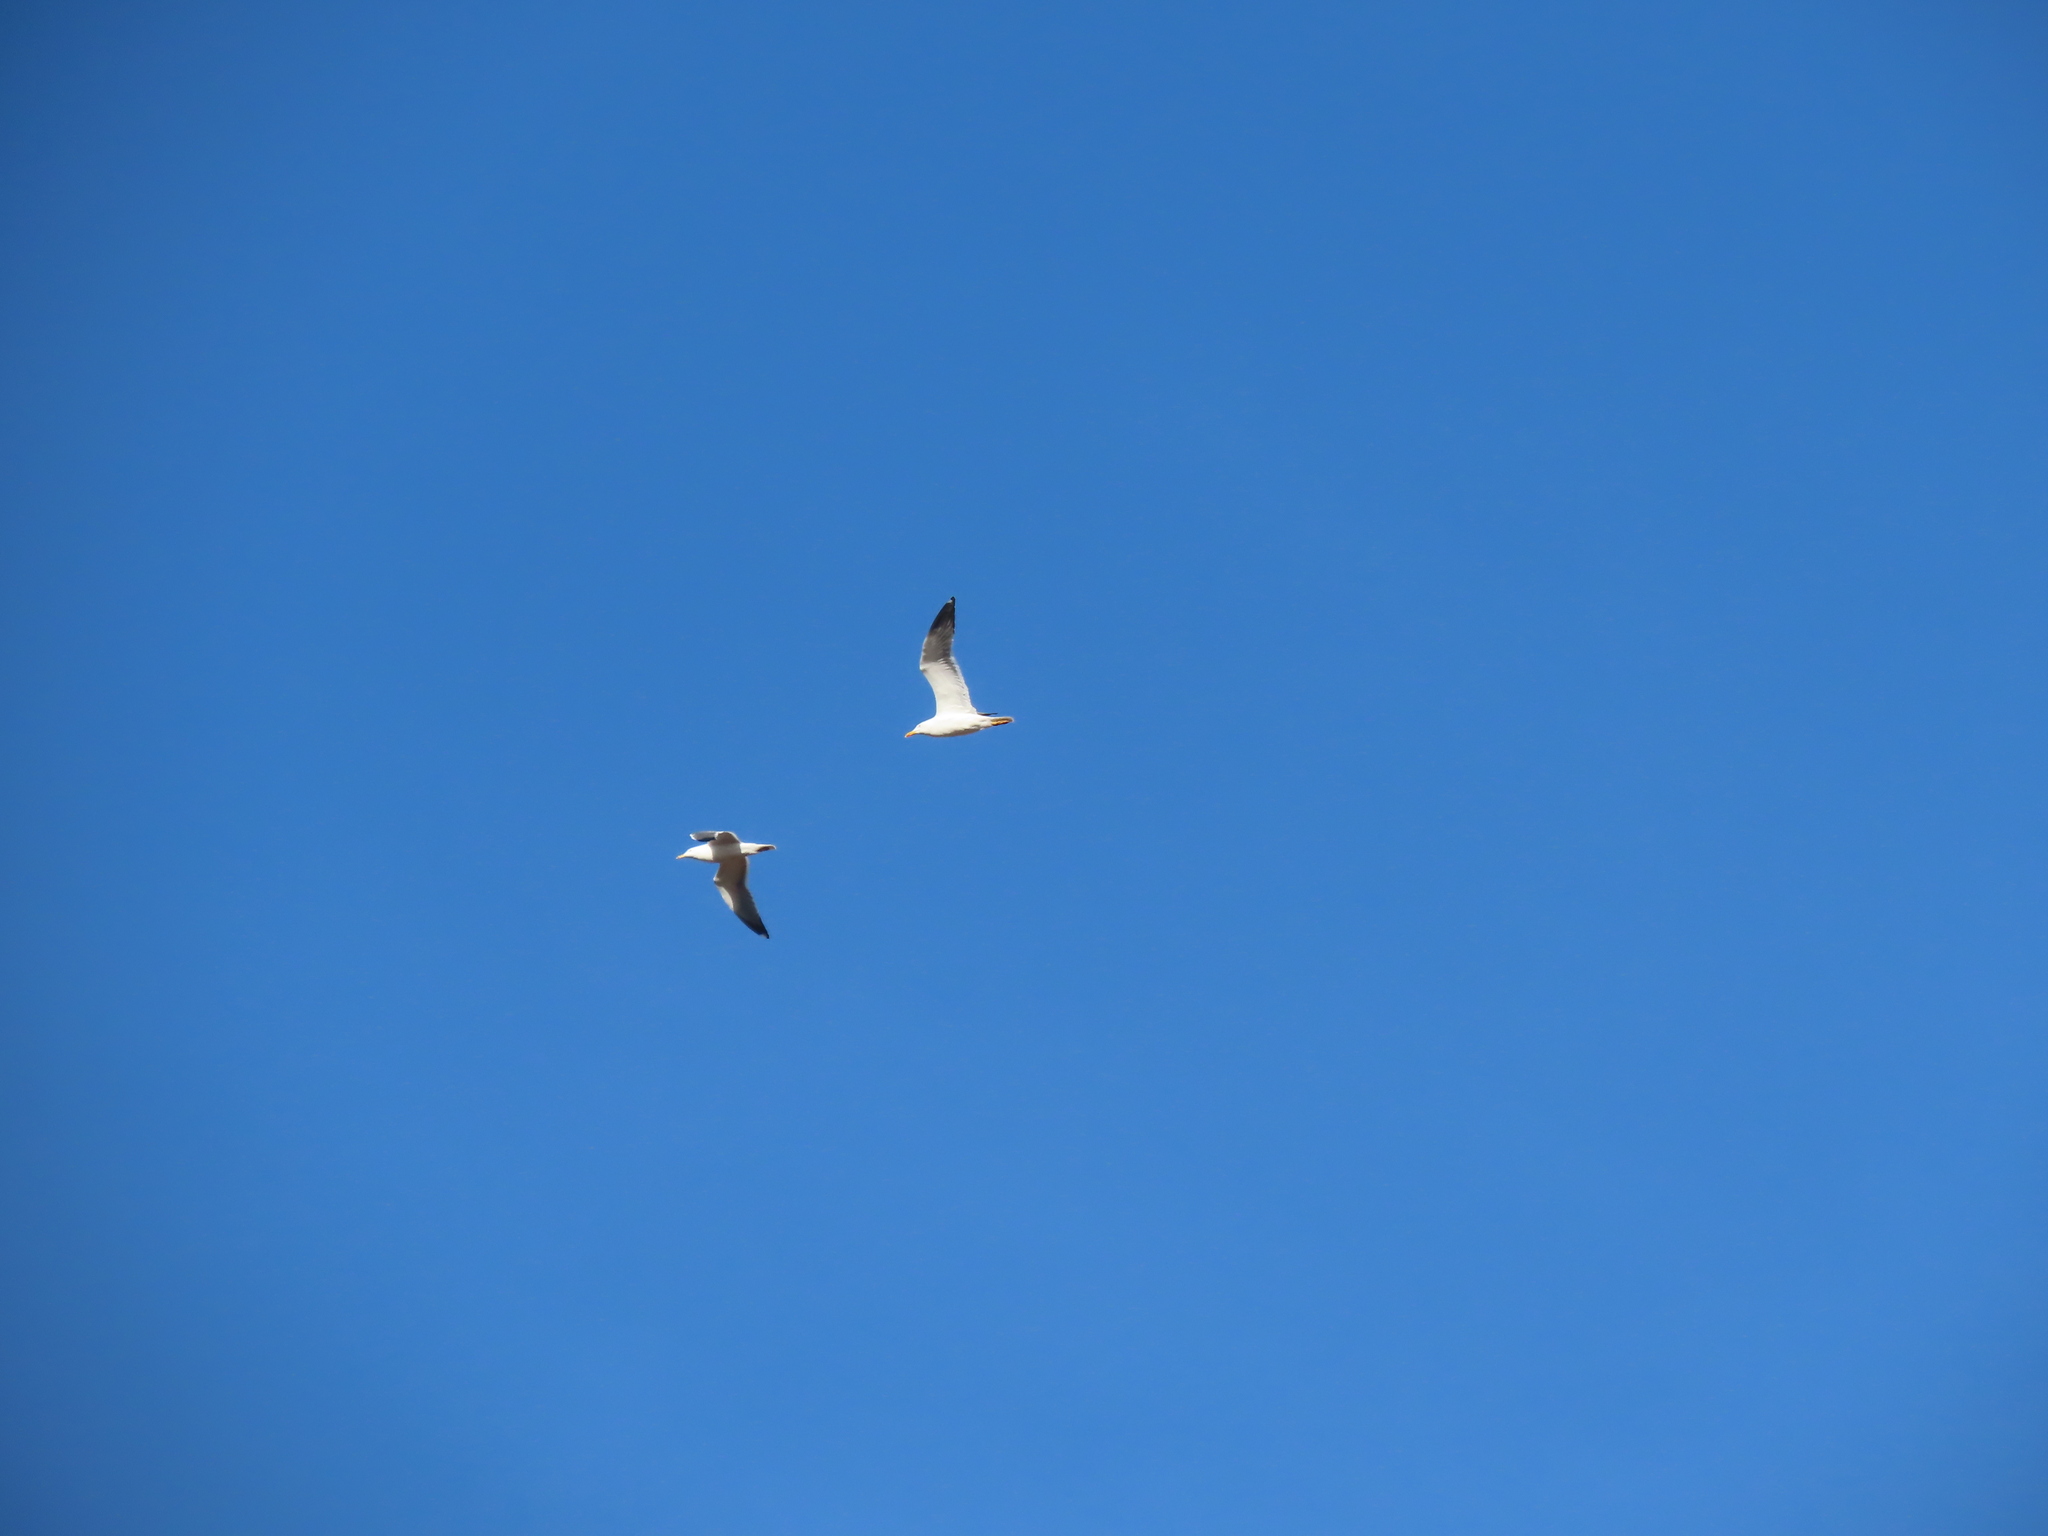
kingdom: Animalia
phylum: Chordata
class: Aves
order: Charadriiformes
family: Laridae
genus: Larus
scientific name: Larus fuscus
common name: Lesser black-backed gull
